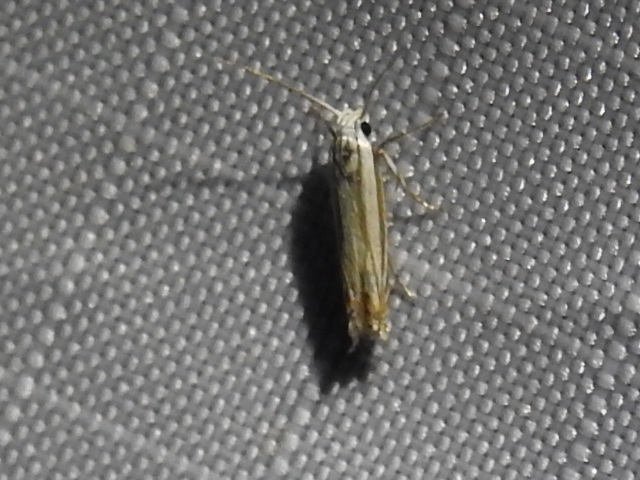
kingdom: Animalia
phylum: Arthropoda
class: Insecta
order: Lepidoptera
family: Gelechiidae
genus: Polyhymno
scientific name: Polyhymno luteostrigella
